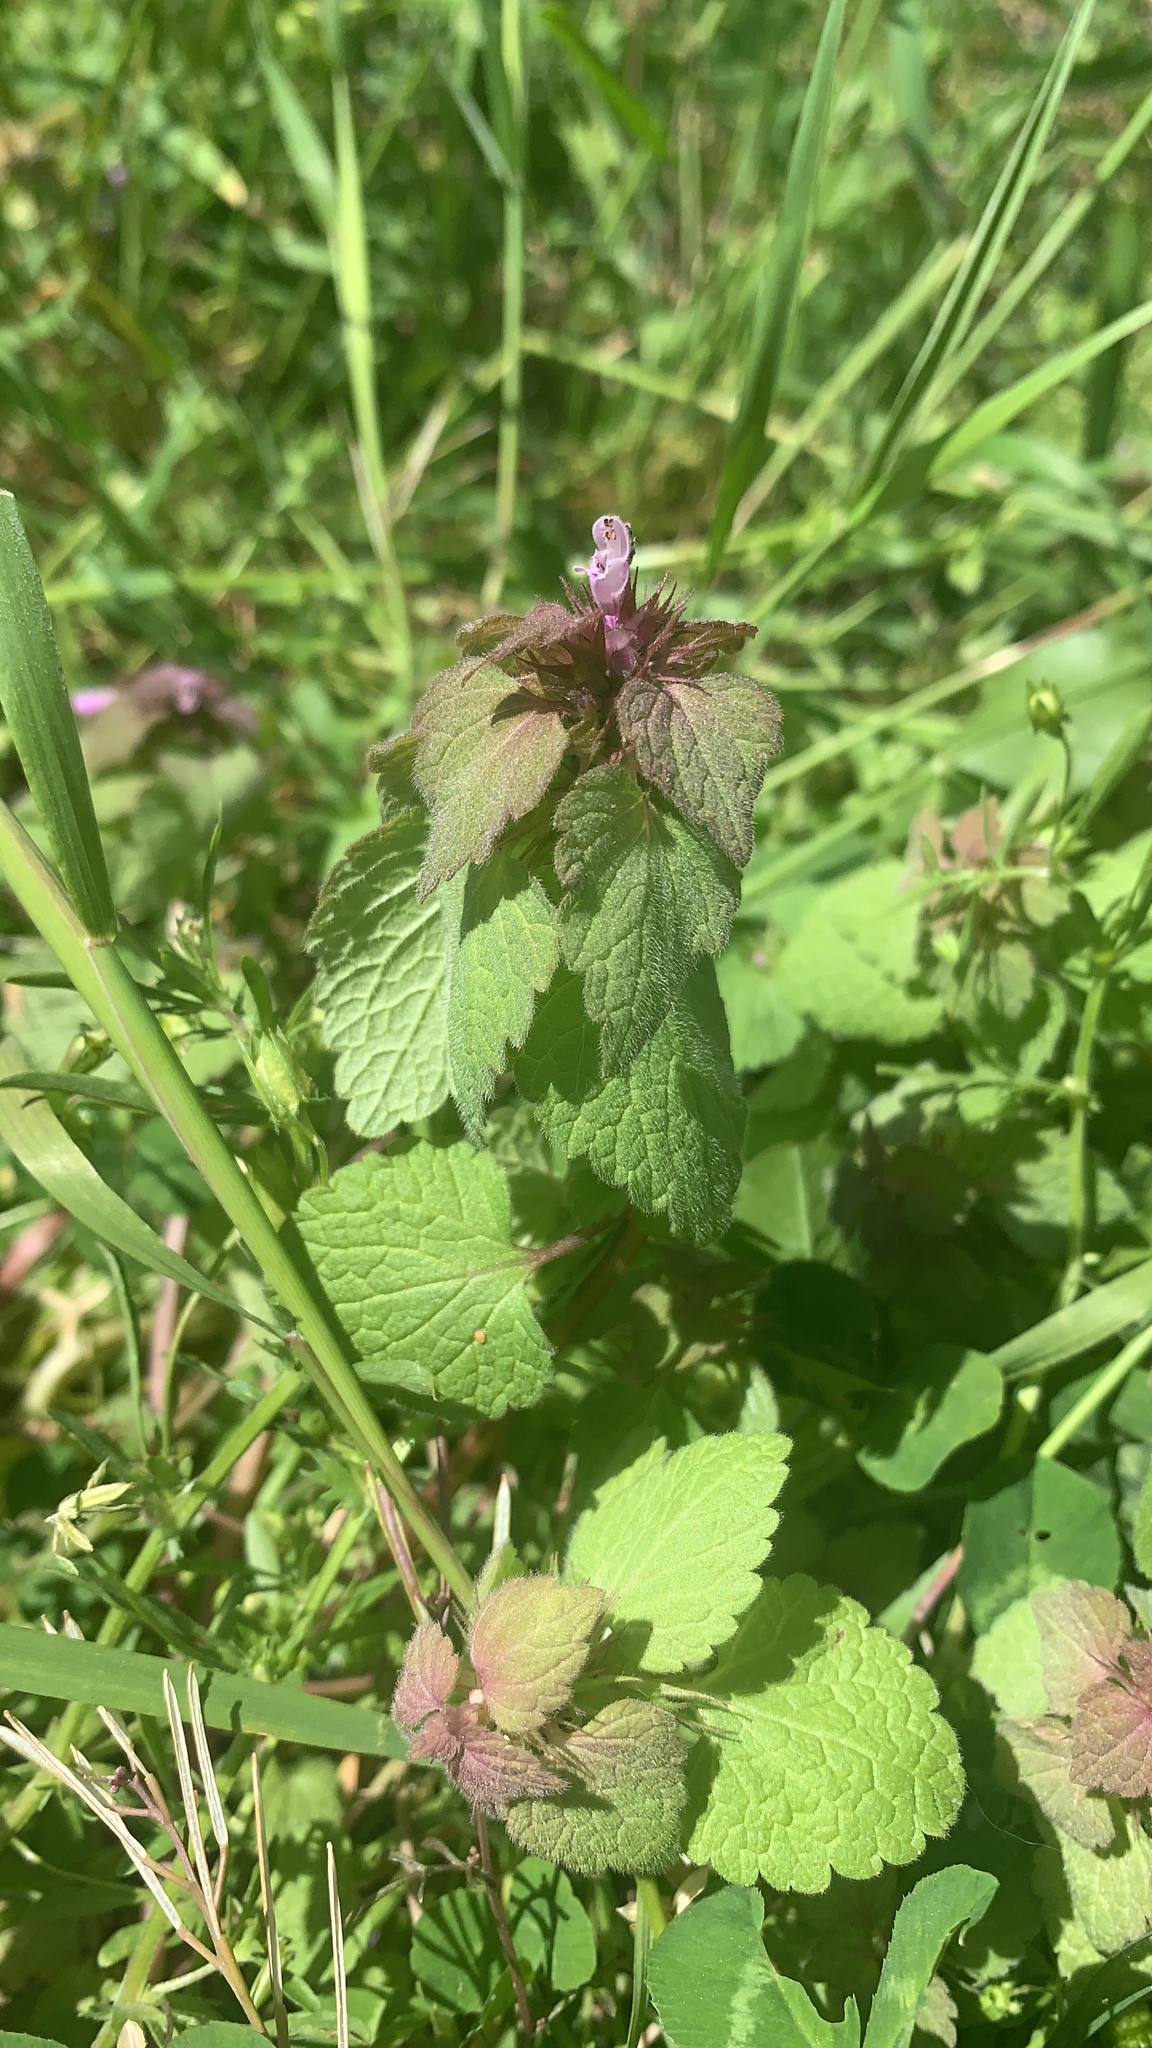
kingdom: Plantae
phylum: Tracheophyta
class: Magnoliopsida
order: Lamiales
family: Lamiaceae
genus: Lamium
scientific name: Lamium purpureum
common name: Red dead-nettle
